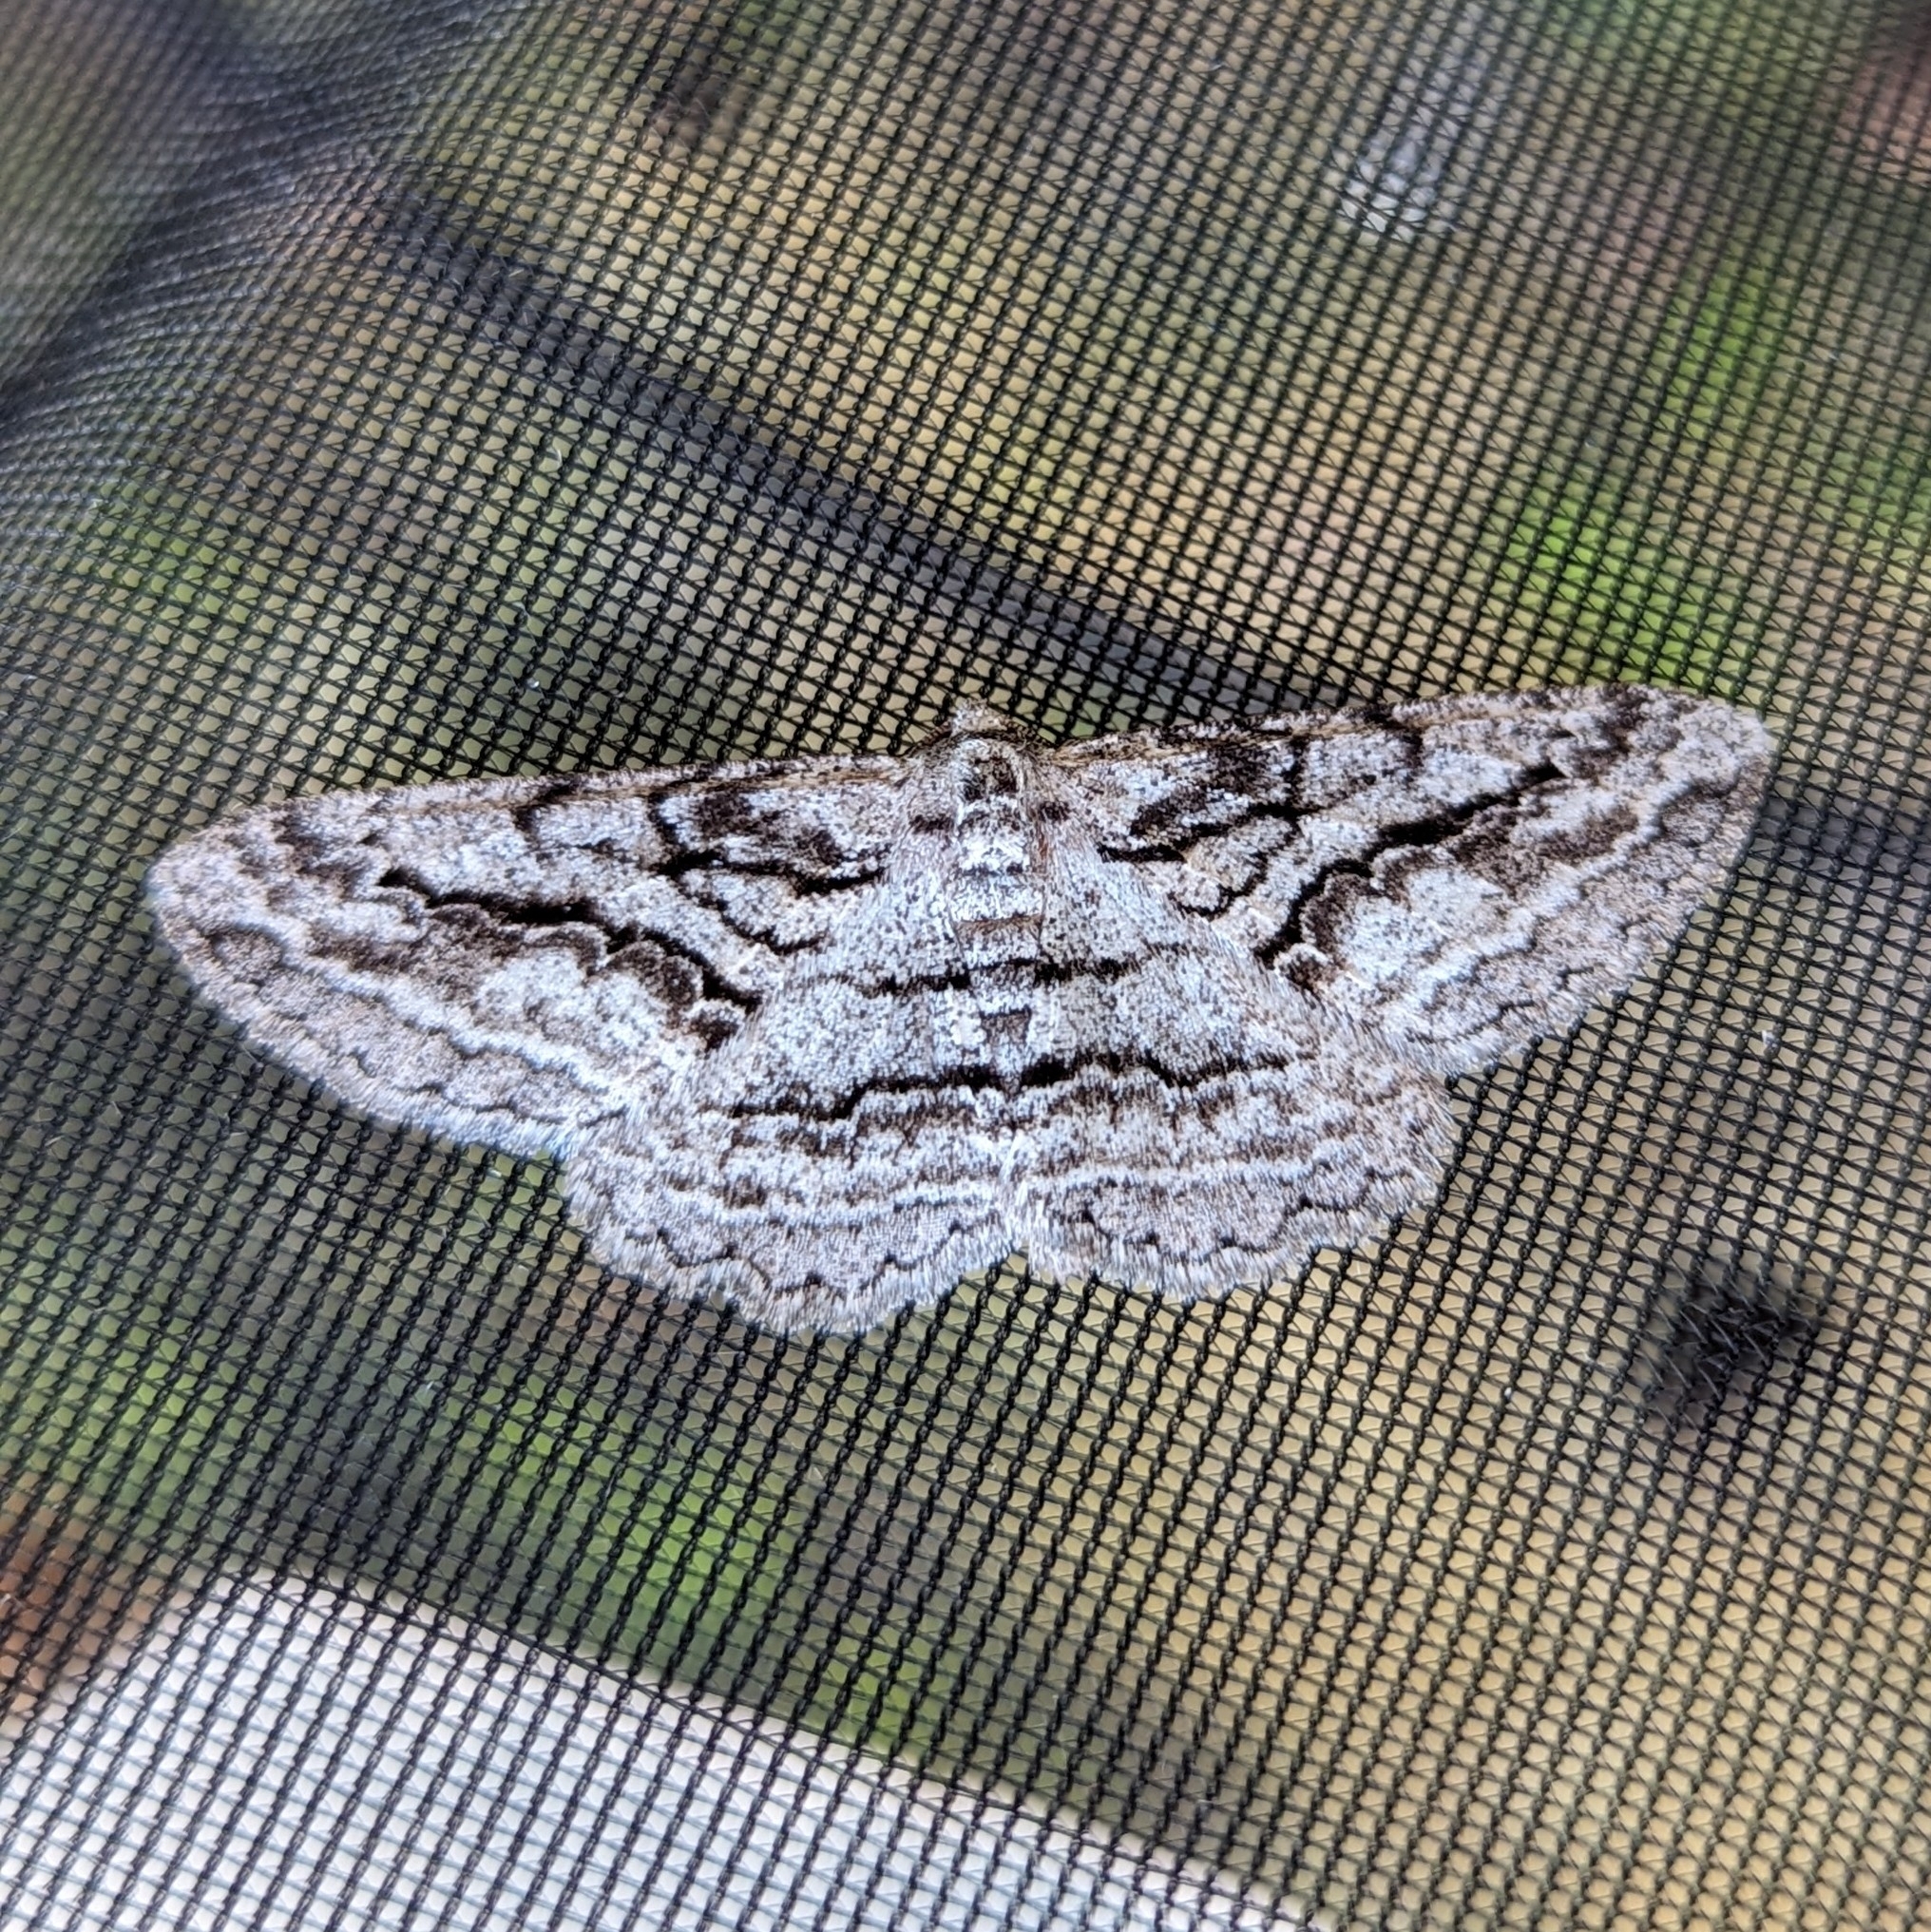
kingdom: Animalia
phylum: Arthropoda
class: Insecta
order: Lepidoptera
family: Geometridae
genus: Stenoporpia
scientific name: Stenoporpia excelsaria
